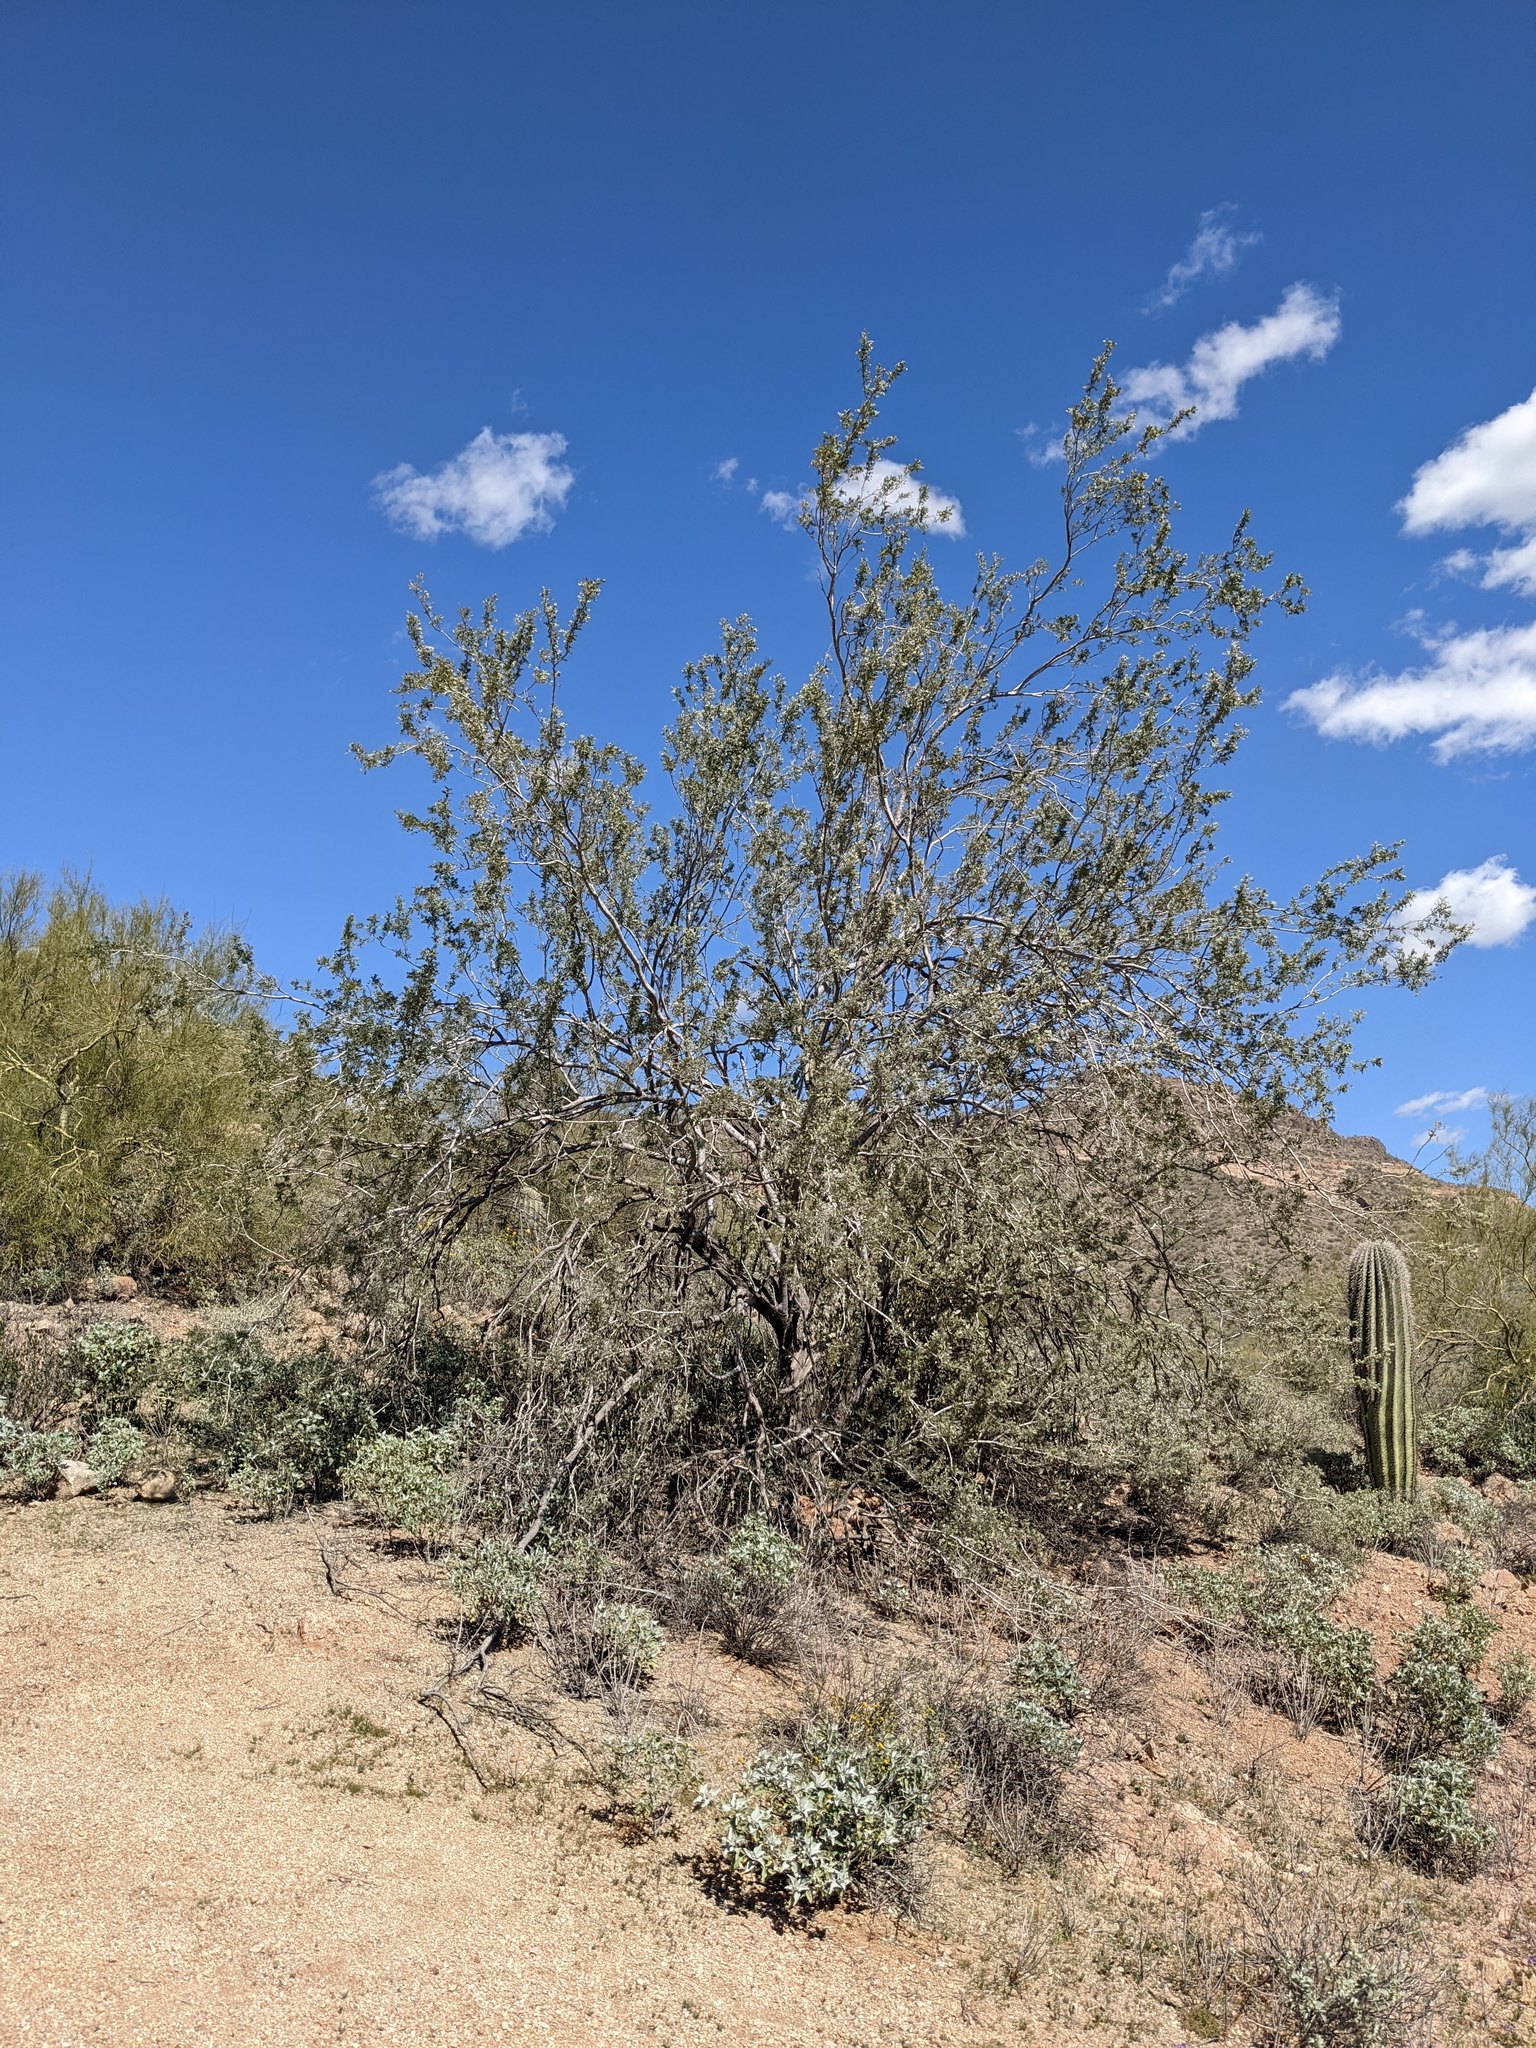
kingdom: Plantae
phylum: Tracheophyta
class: Magnoliopsida
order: Fabales
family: Fabaceae
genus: Olneya
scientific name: Olneya tesota
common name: Desert ironwood
